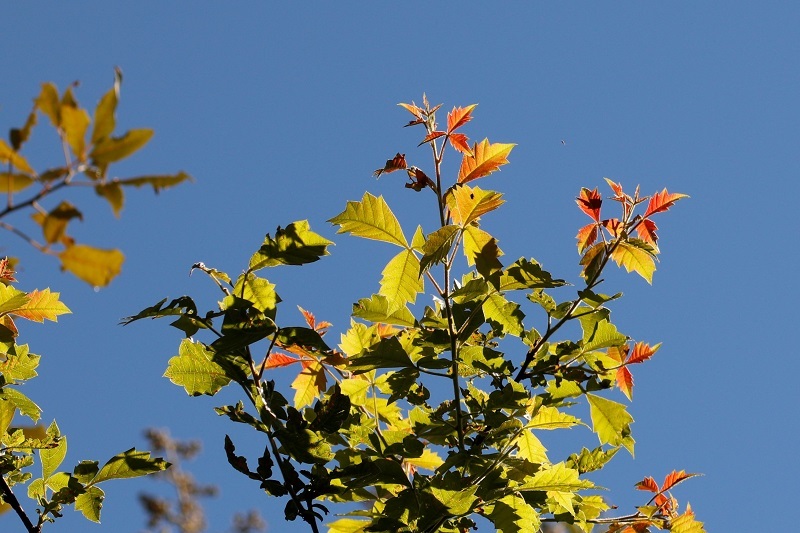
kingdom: Plantae
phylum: Tracheophyta
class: Magnoliopsida
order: Sapindales
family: Anacardiaceae
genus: Searsia
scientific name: Searsia dentata
